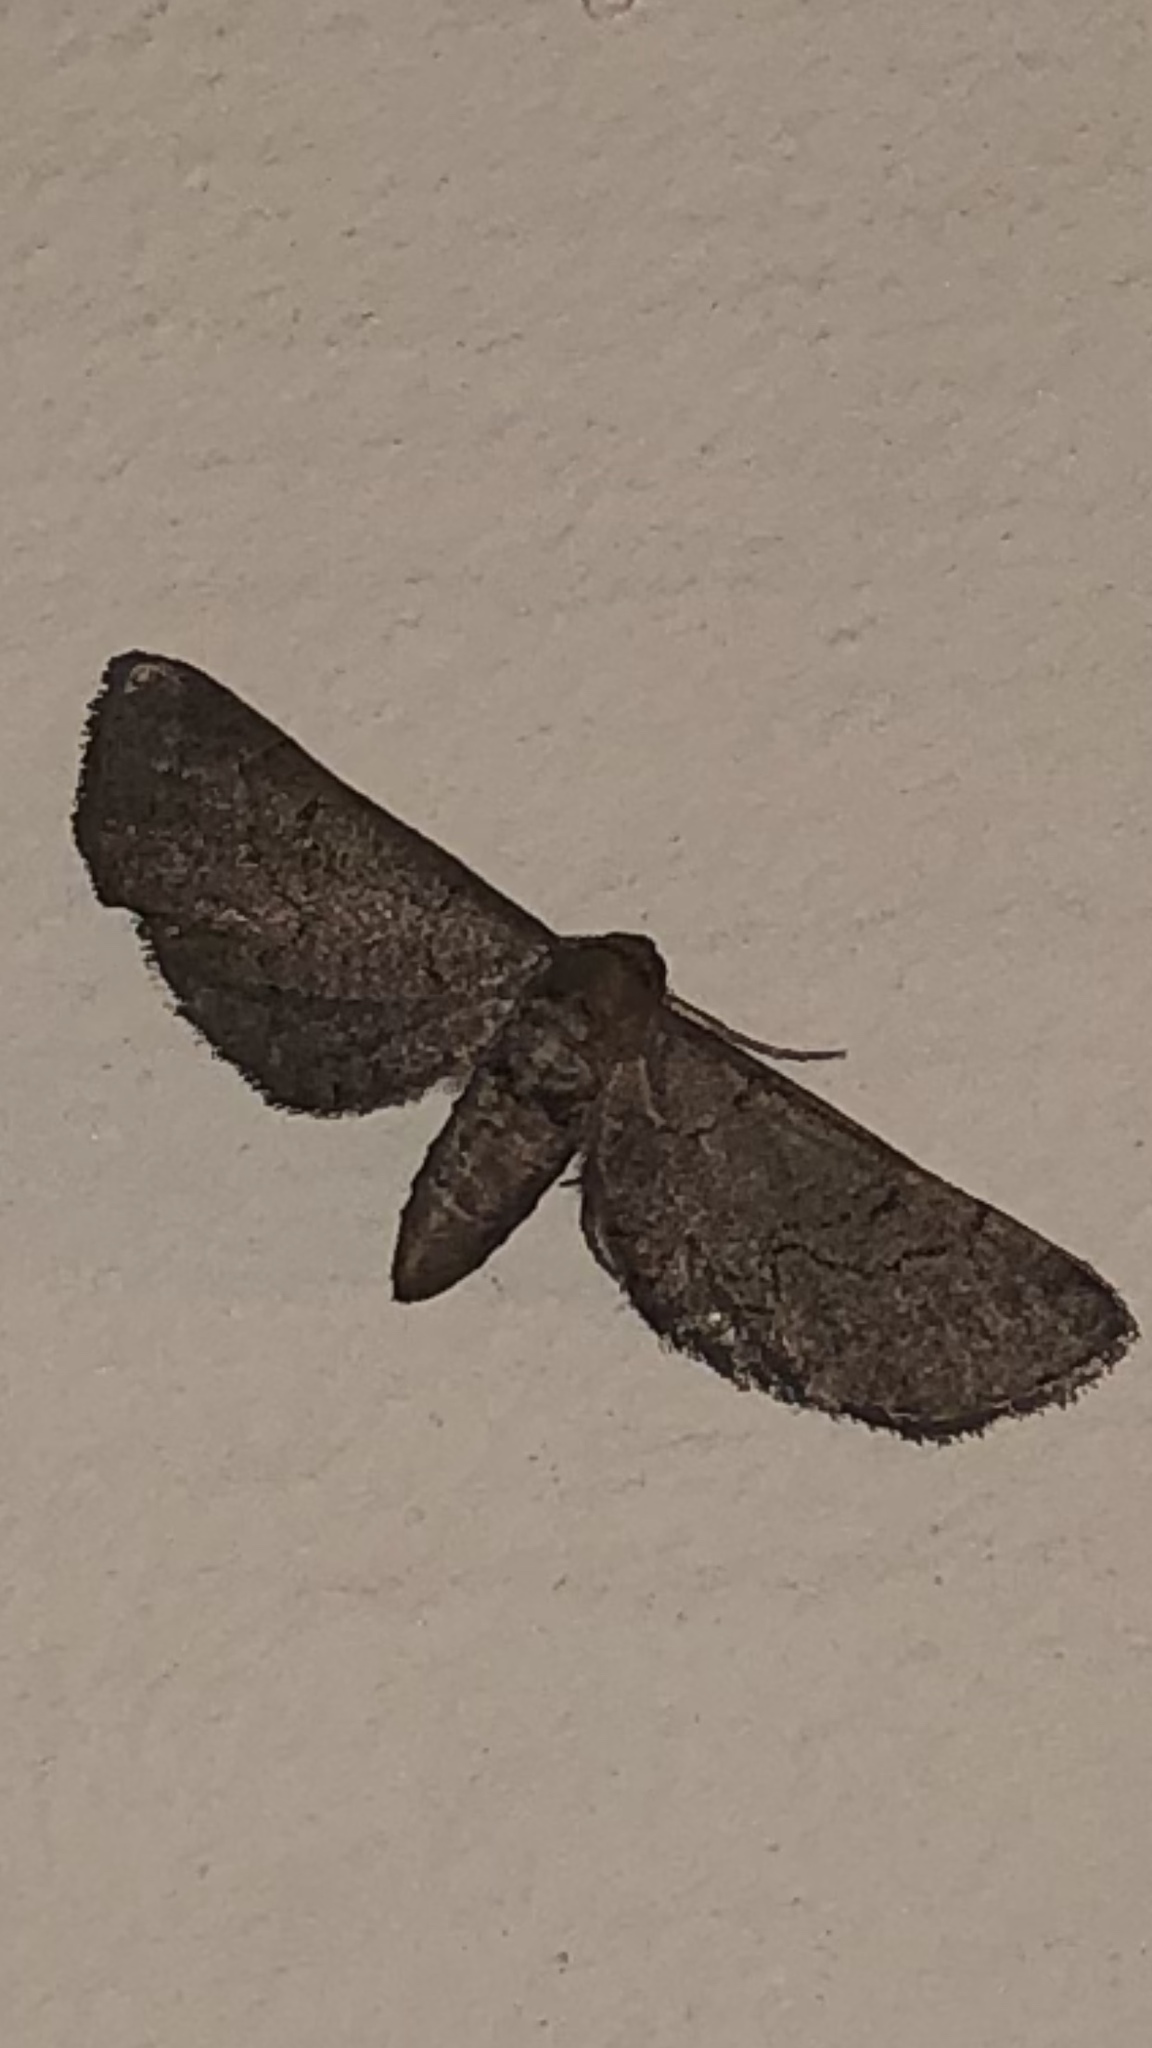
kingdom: Animalia
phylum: Arthropoda
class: Insecta
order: Lepidoptera
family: Geometridae
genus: Exelis
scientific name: Exelis pyrolaria
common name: Fine lined gray
